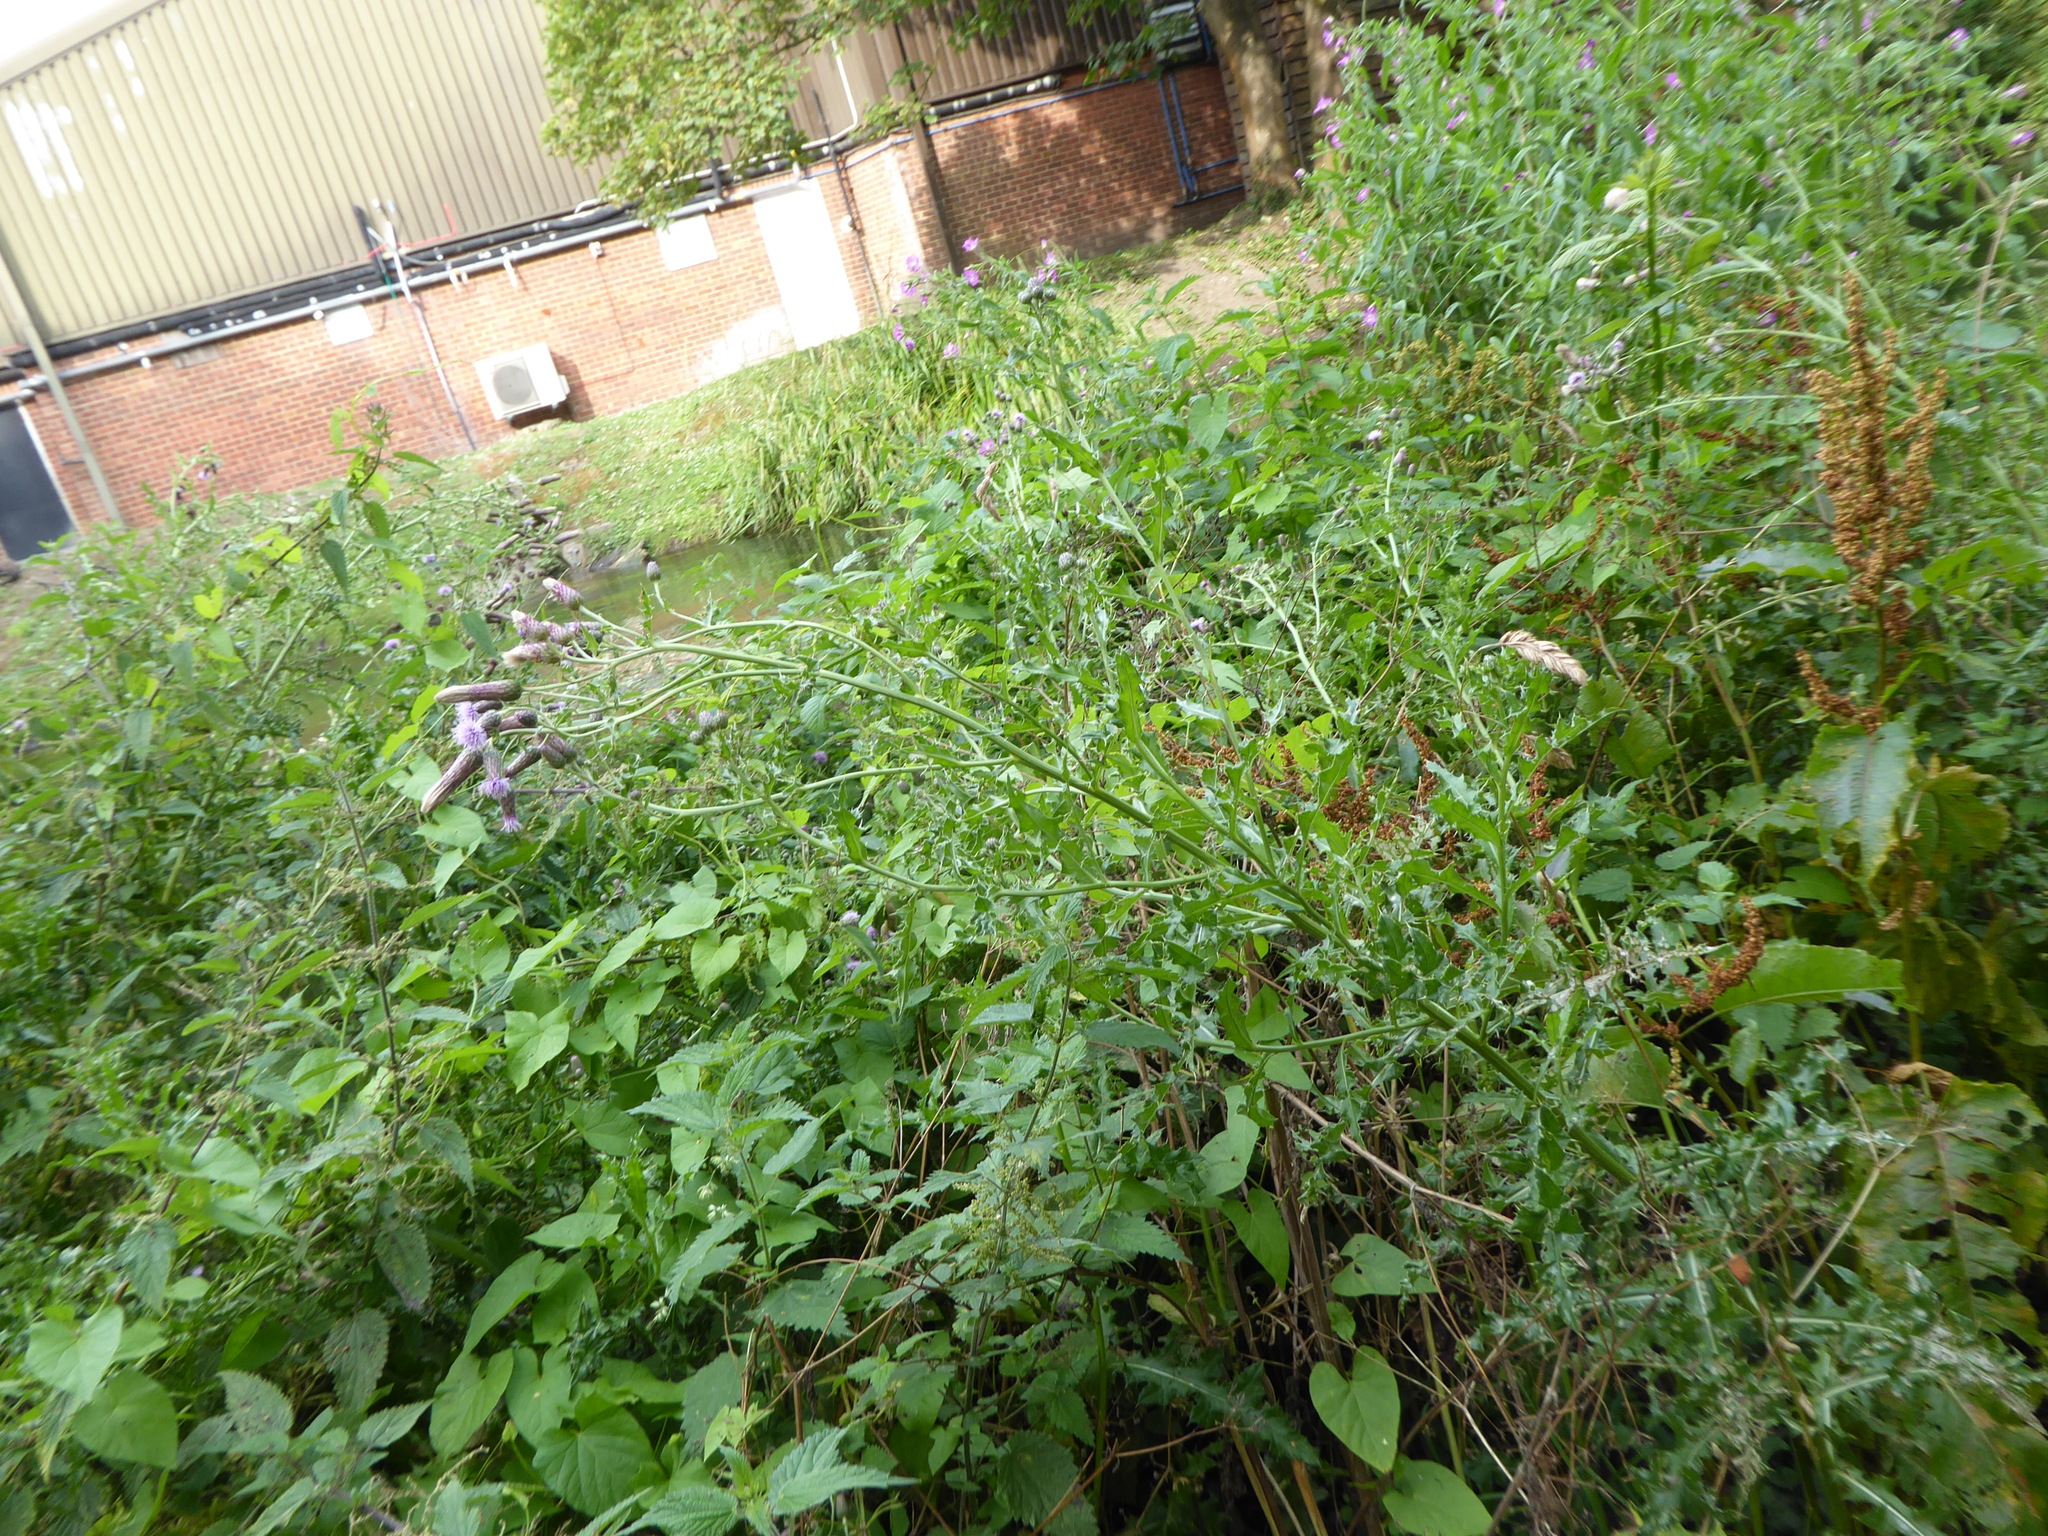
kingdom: Plantae
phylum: Tracheophyta
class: Magnoliopsida
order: Asterales
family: Asteraceae
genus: Cirsium
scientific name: Cirsium arvense
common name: Creeping thistle
